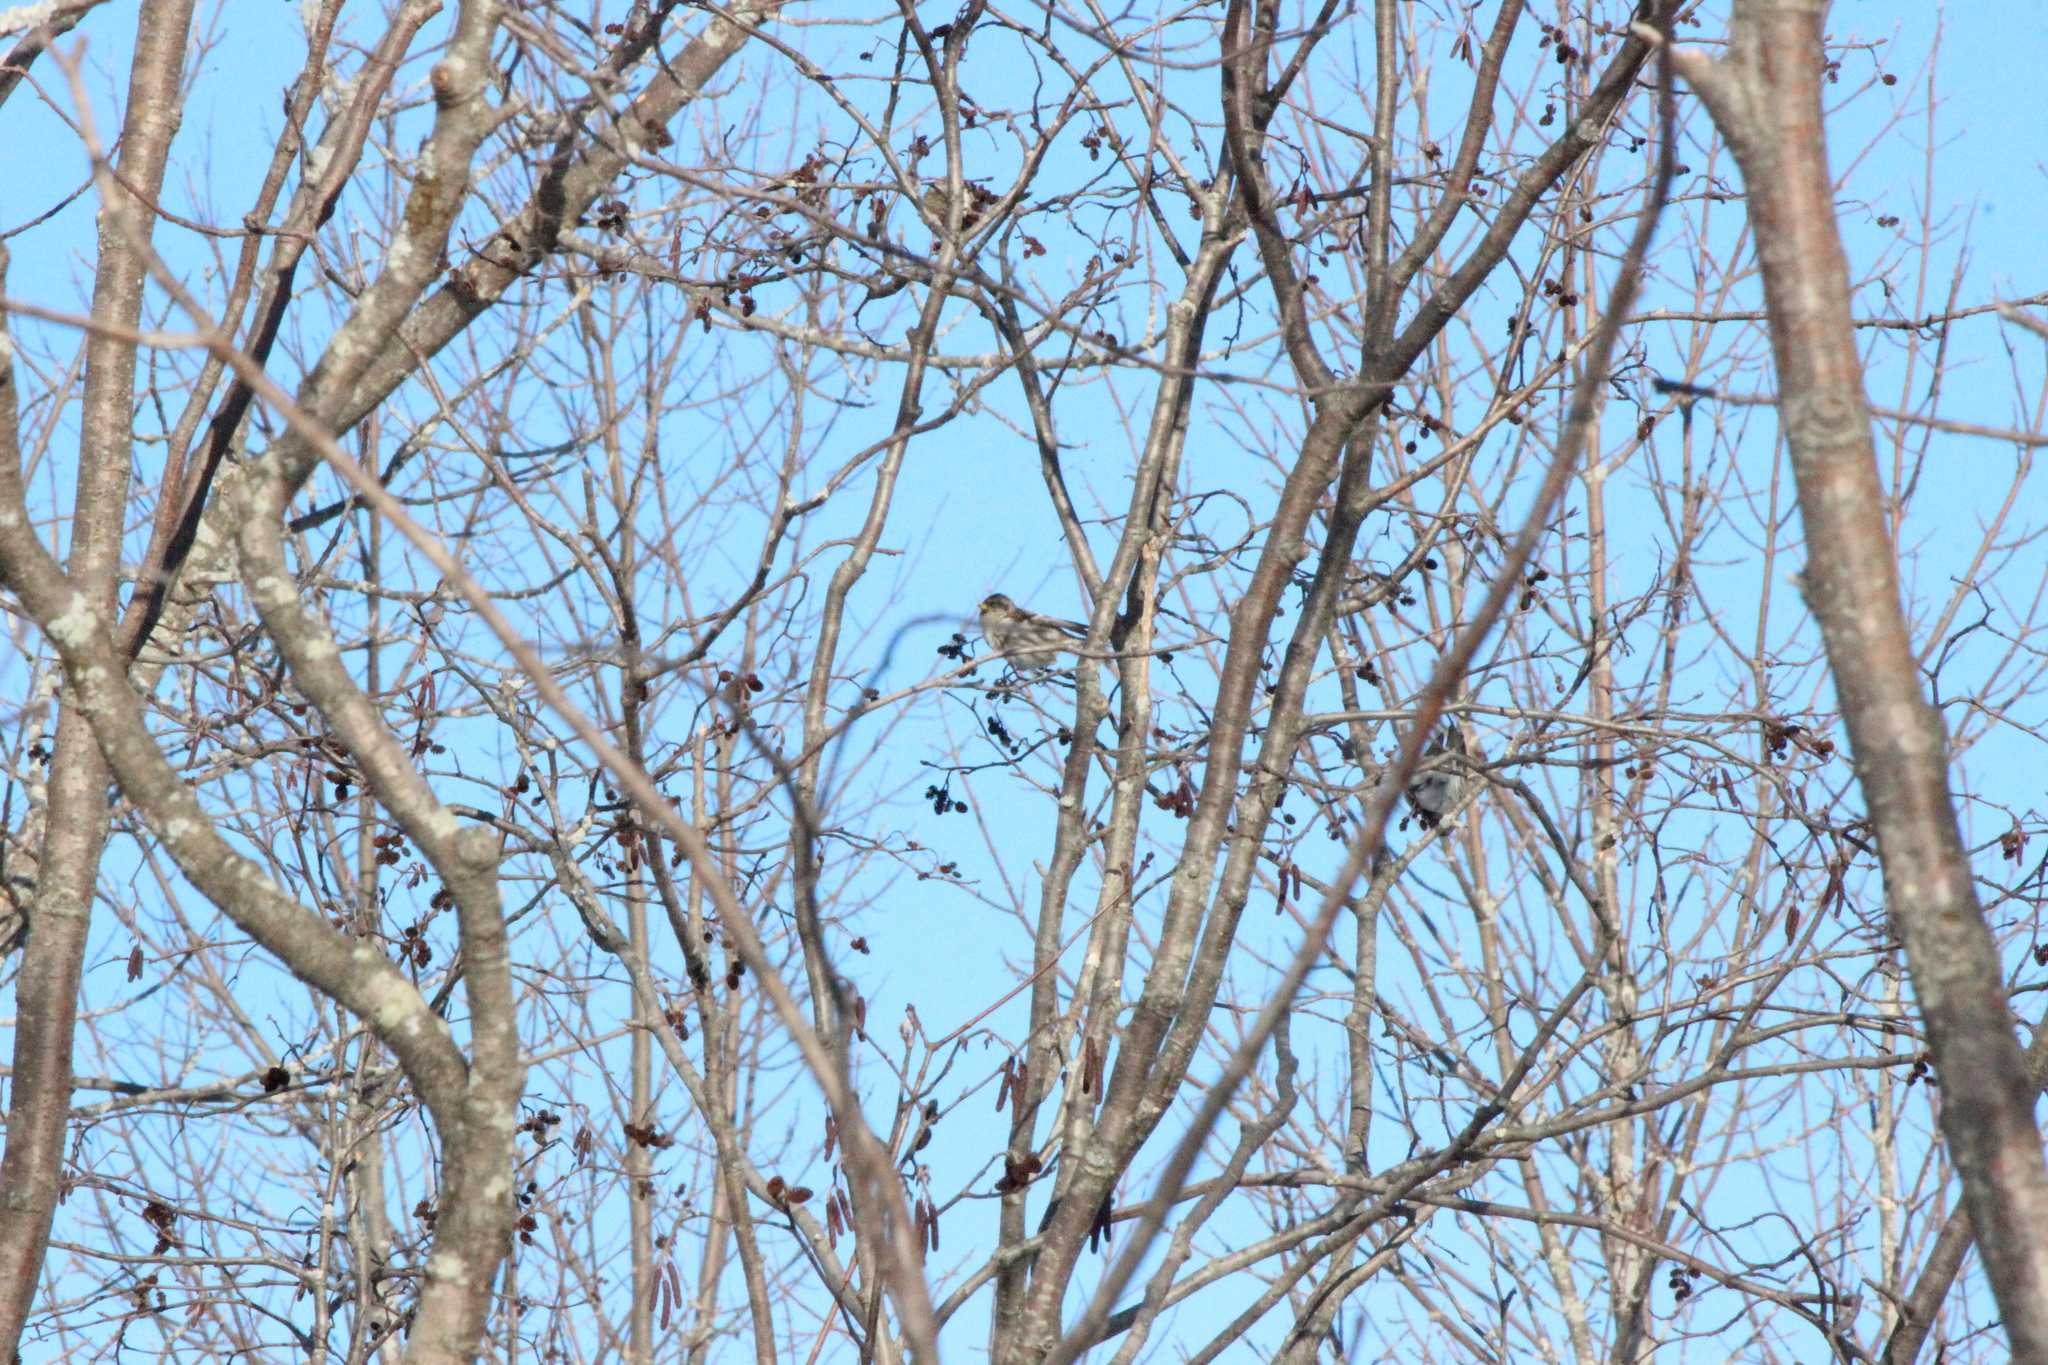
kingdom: Animalia
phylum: Chordata
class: Aves
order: Passeriformes
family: Fringillidae
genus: Acanthis
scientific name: Acanthis flammea
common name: Common redpoll
